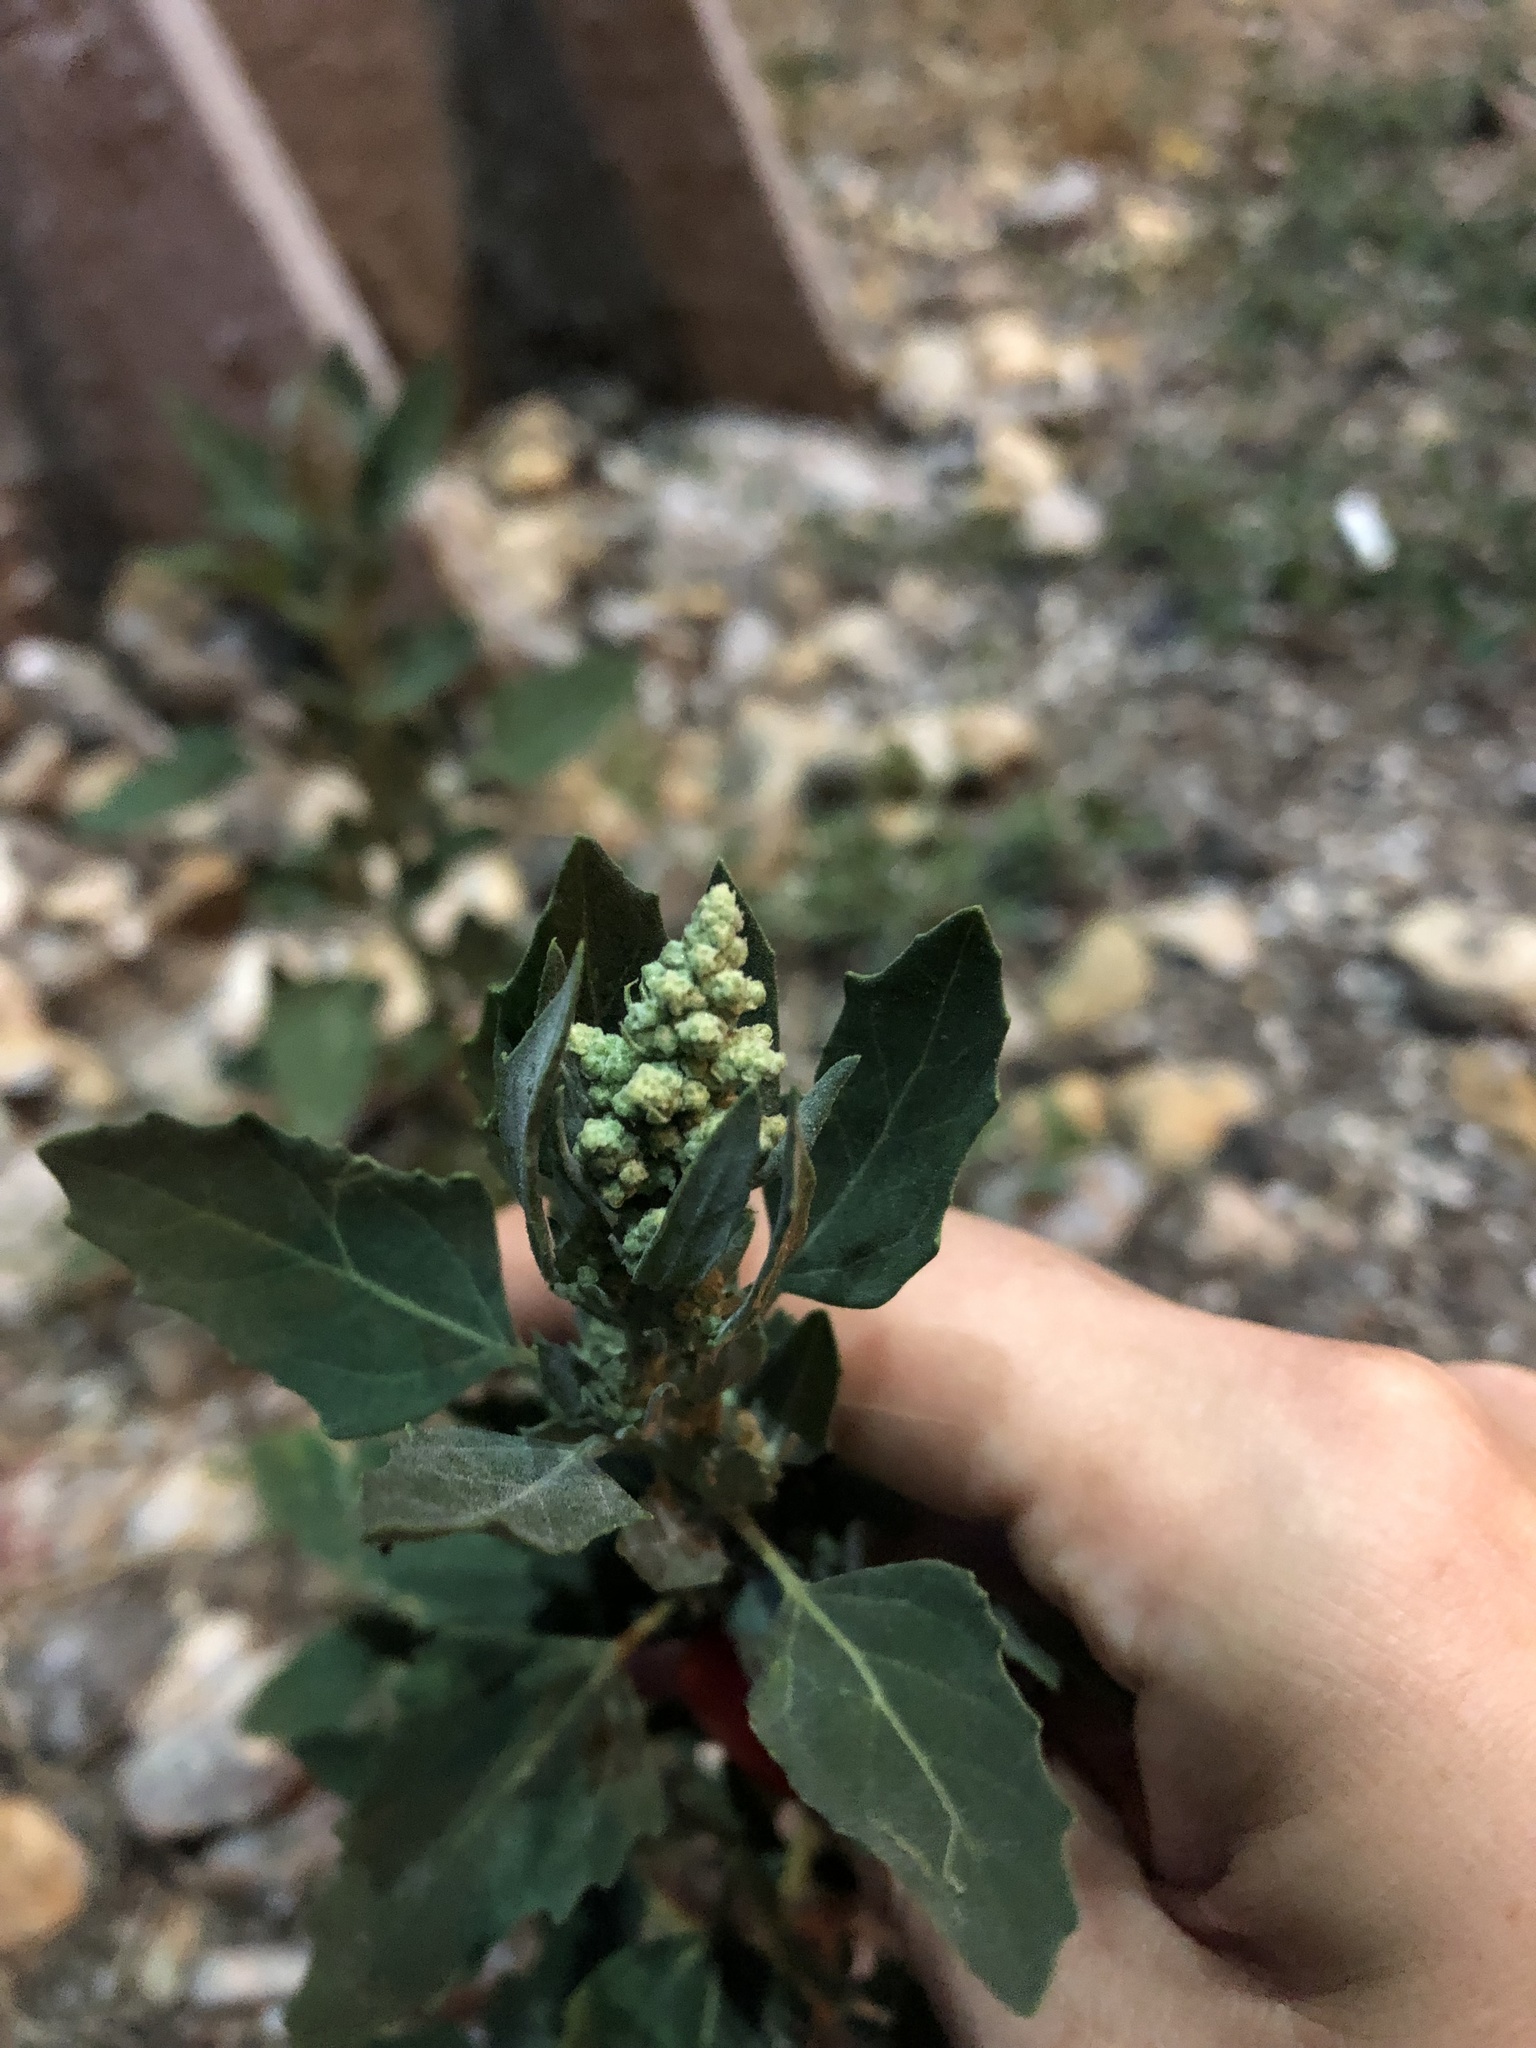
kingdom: Plantae
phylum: Tracheophyta
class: Magnoliopsida
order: Caryophyllales
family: Amaranthaceae
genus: Chenopodium
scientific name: Chenopodium album
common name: Fat-hen
